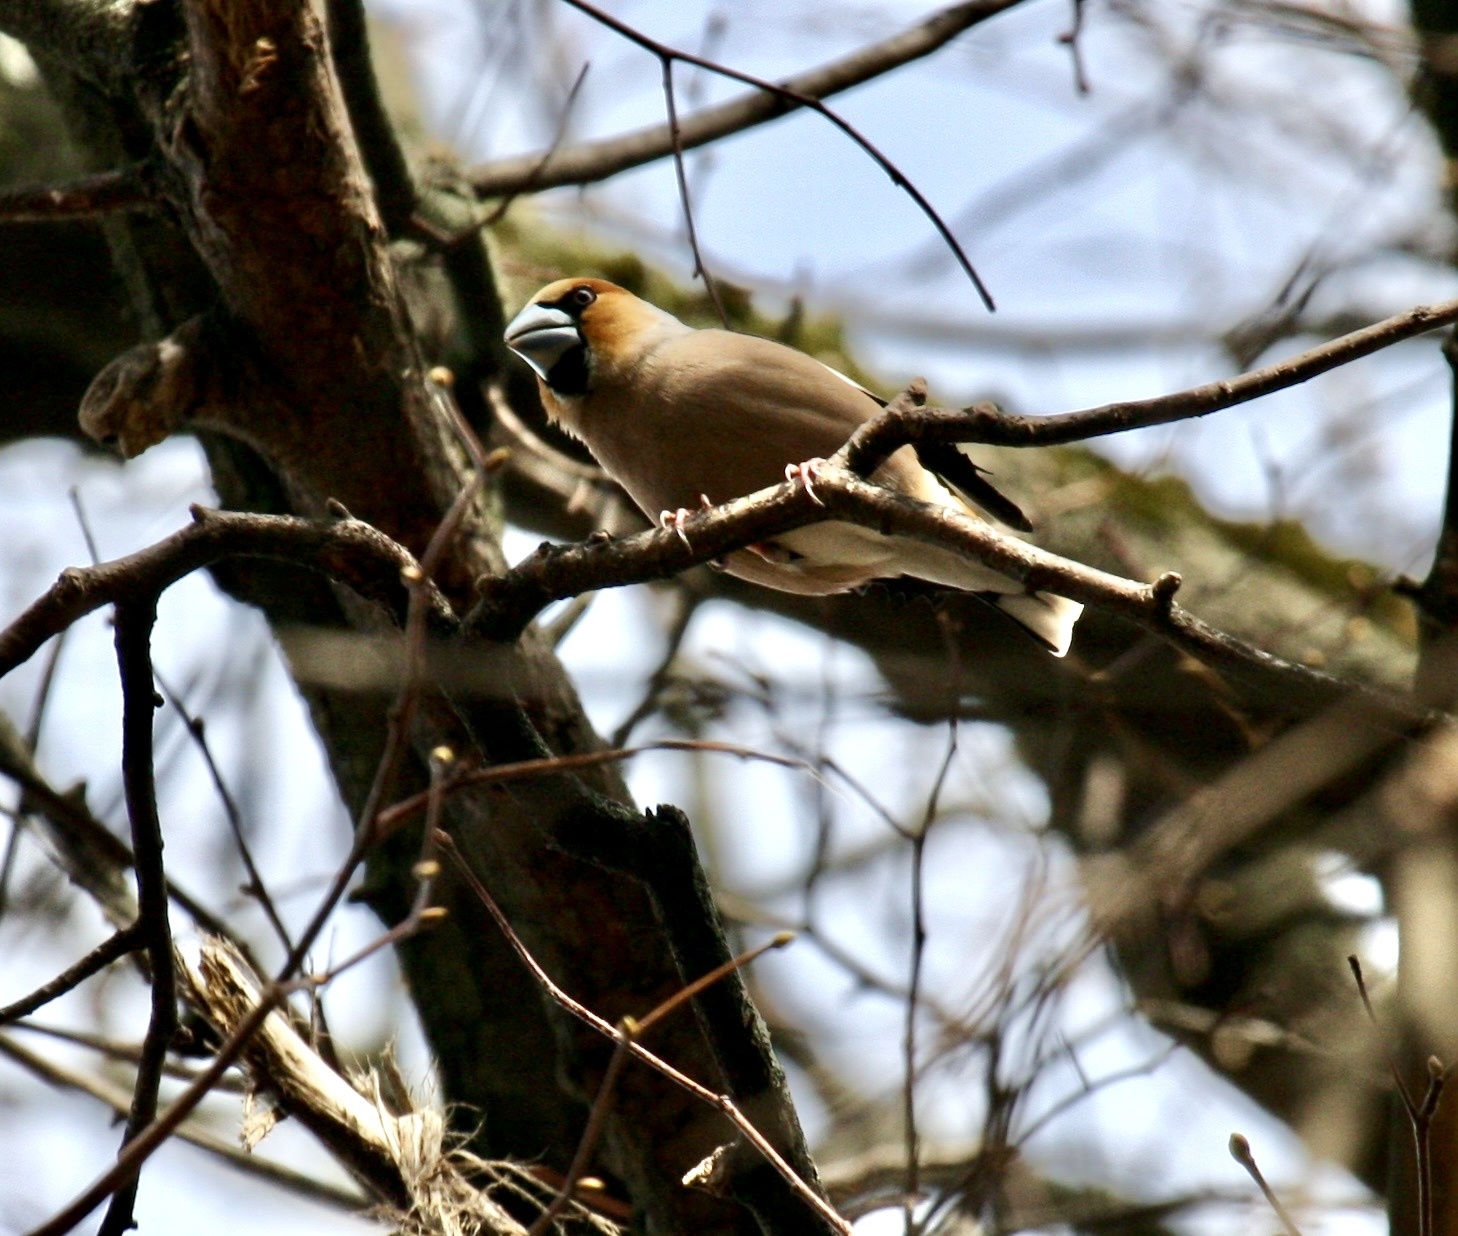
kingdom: Animalia
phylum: Chordata
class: Aves
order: Passeriformes
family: Fringillidae
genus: Coccothraustes
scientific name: Coccothraustes coccothraustes
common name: Hawfinch
